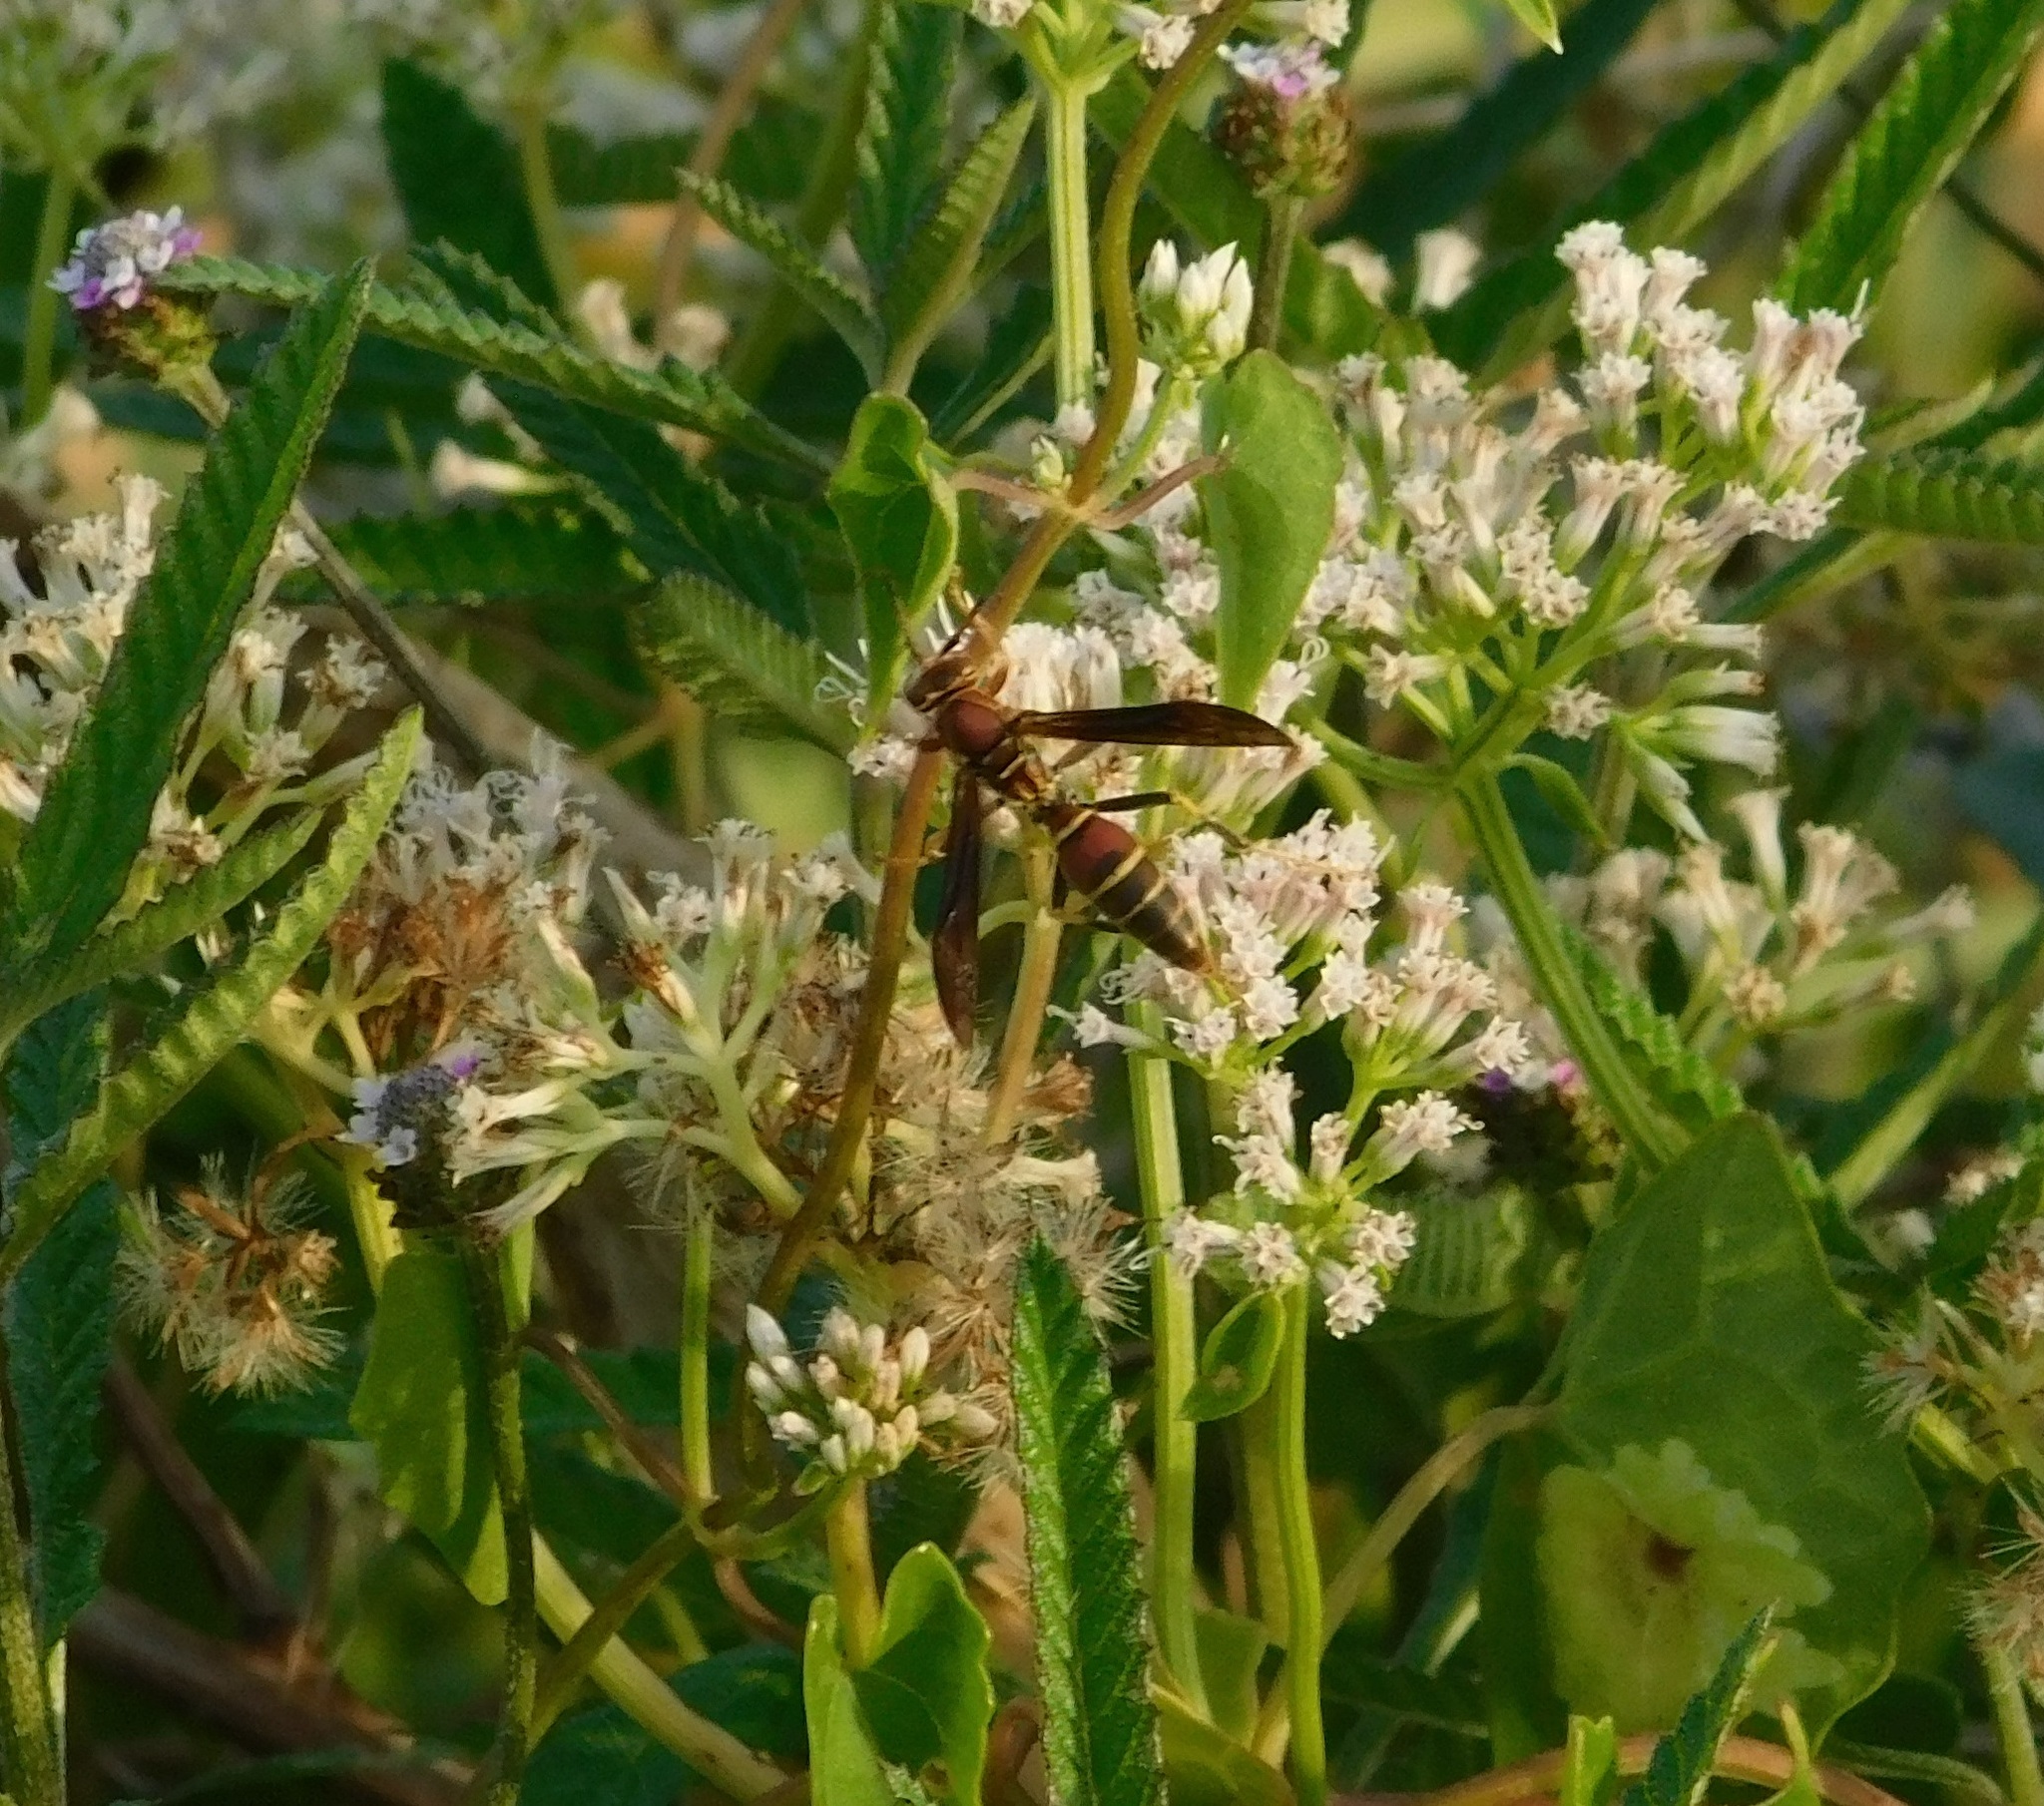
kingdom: Animalia
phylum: Arthropoda
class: Insecta
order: Hymenoptera
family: Pompilidae
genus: Aphanilopterus
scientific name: Aphanilopterus
